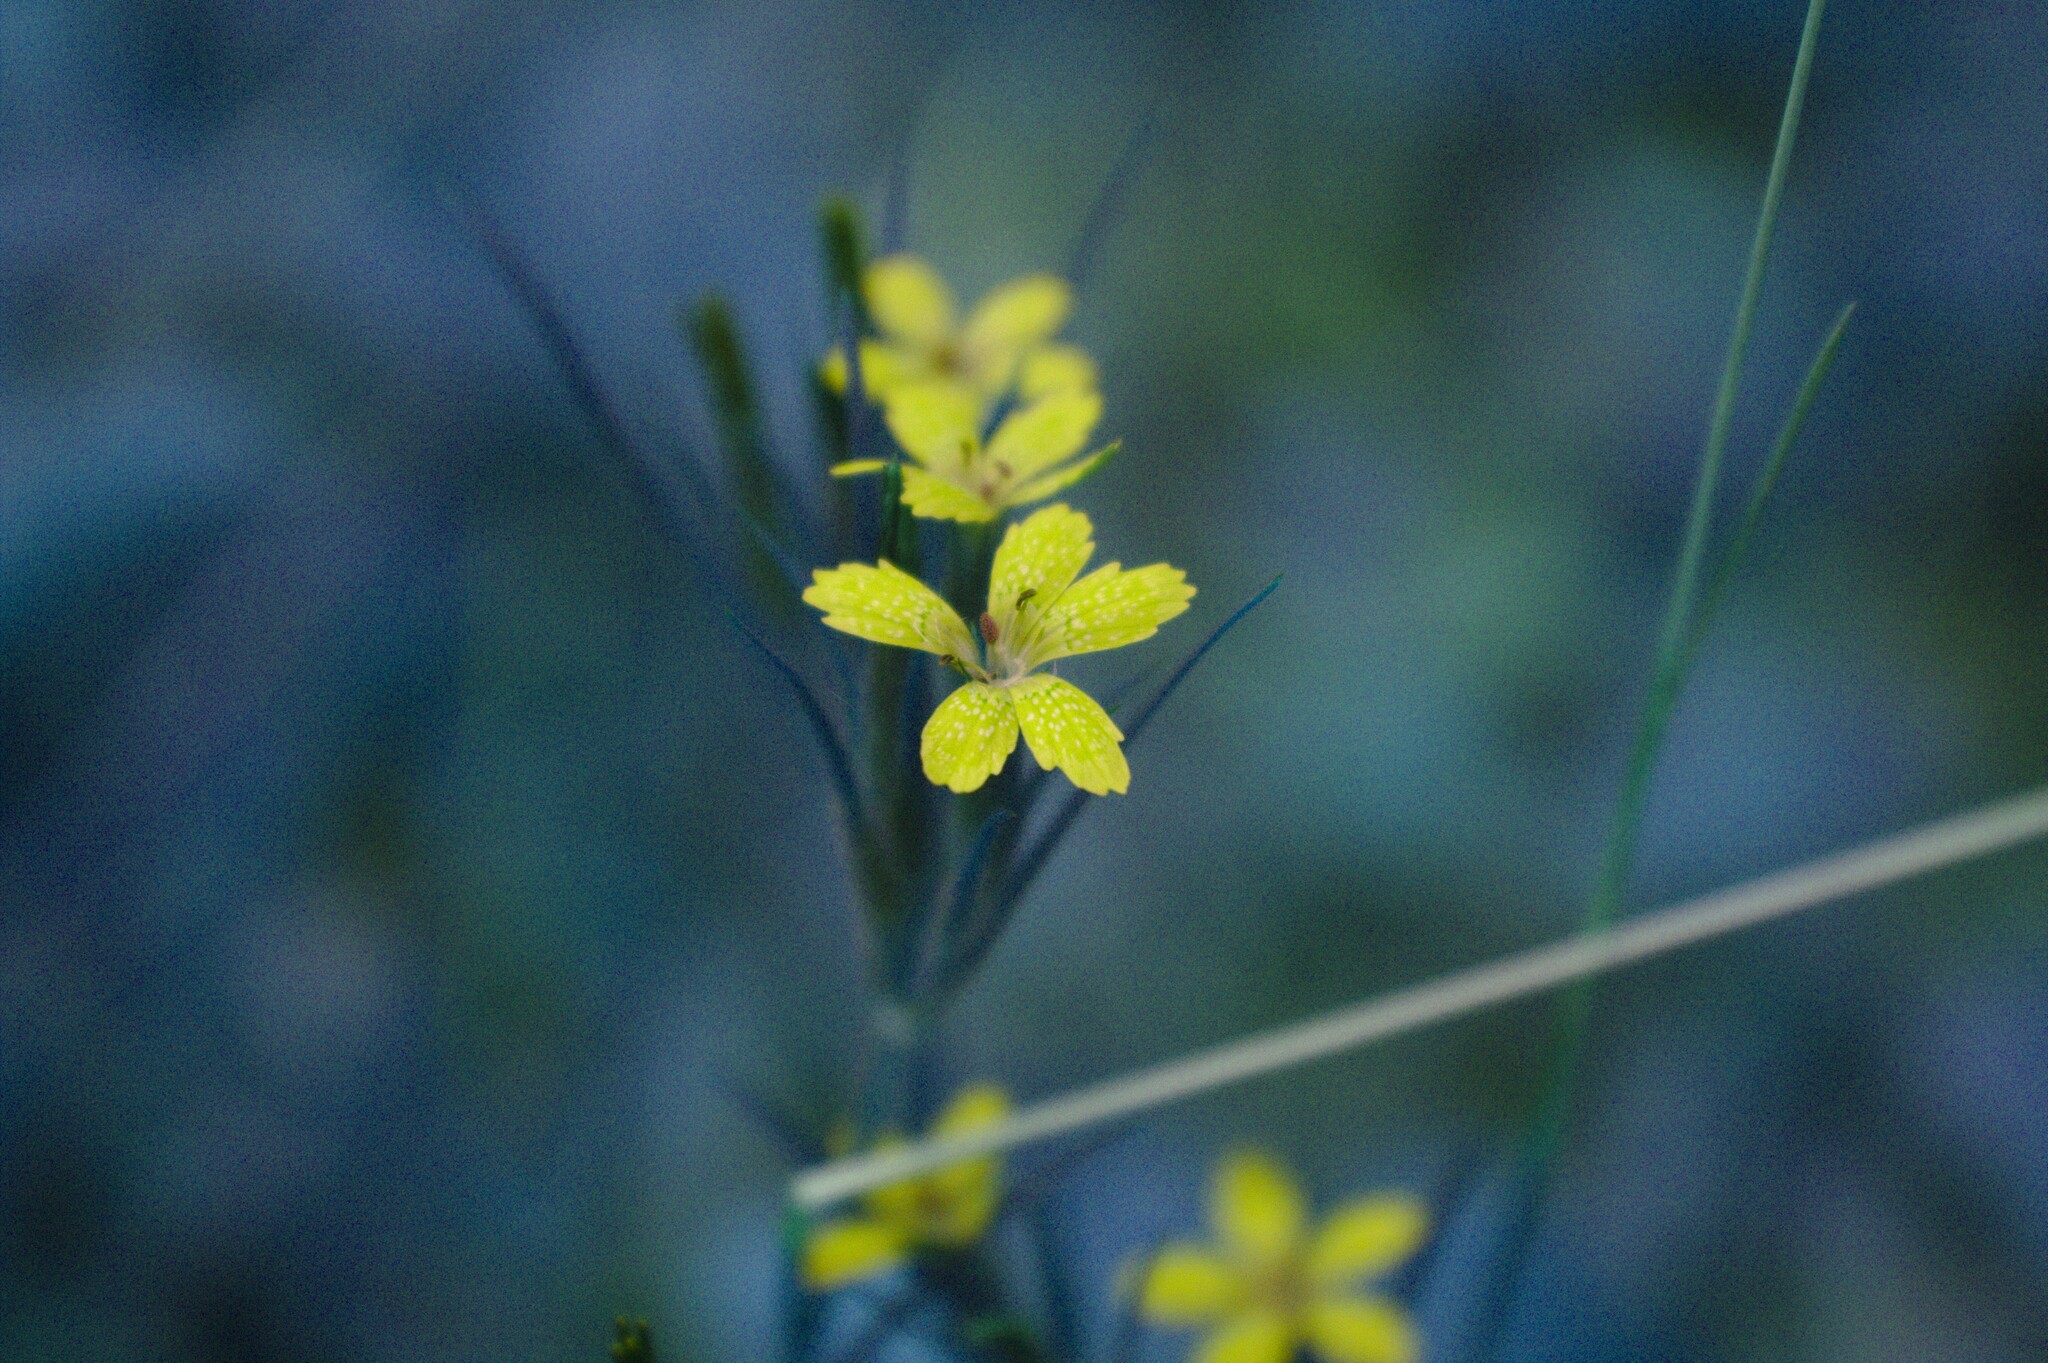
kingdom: Plantae
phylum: Tracheophyta
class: Magnoliopsida
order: Caryophyllales
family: Caryophyllaceae
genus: Dianthus
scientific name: Dianthus armeria
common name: Deptford pink
